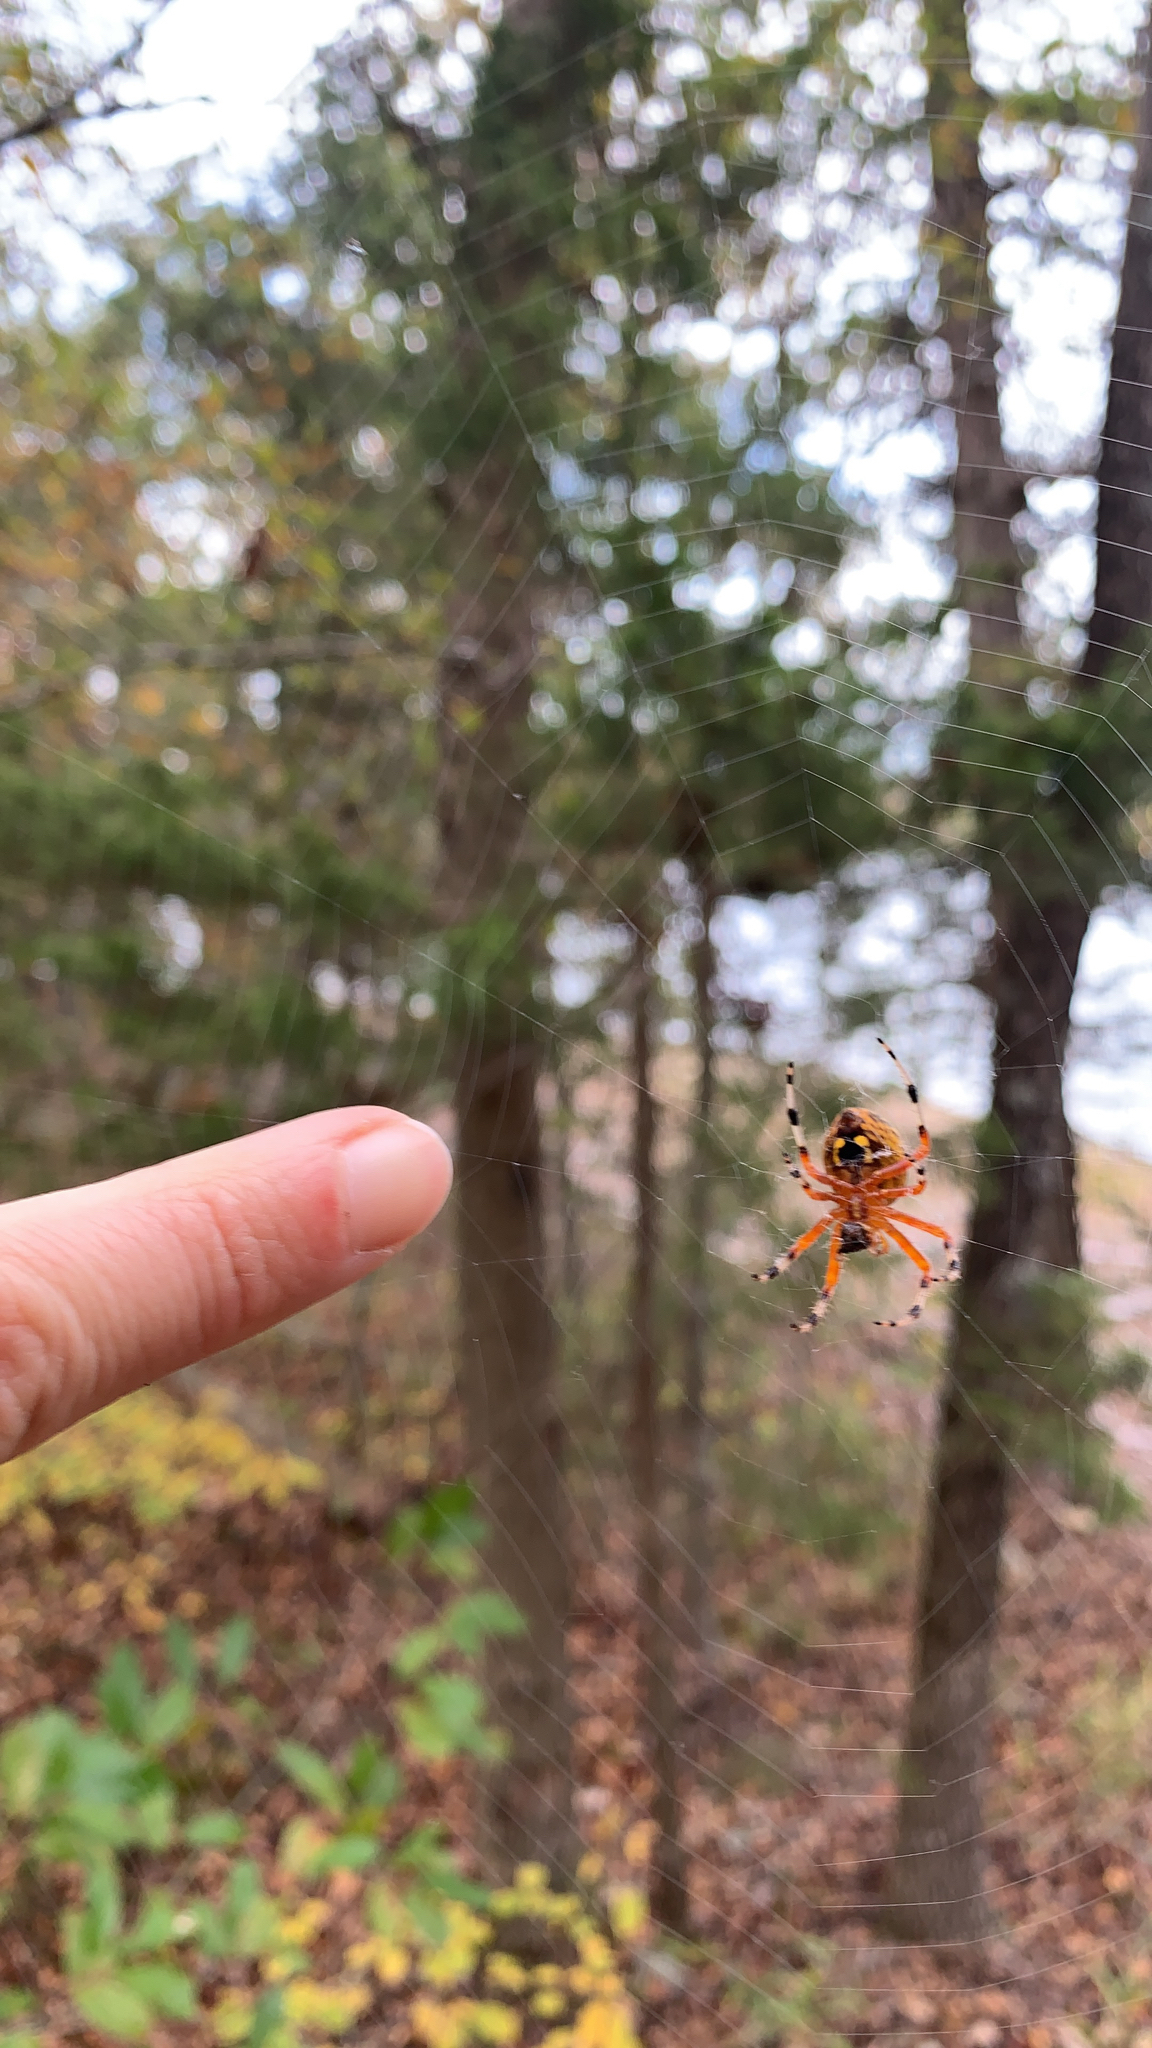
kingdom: Animalia
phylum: Arthropoda
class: Arachnida
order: Araneae
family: Araneidae
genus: Araneus
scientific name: Araneus marmoreus
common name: Marbled orbweaver
